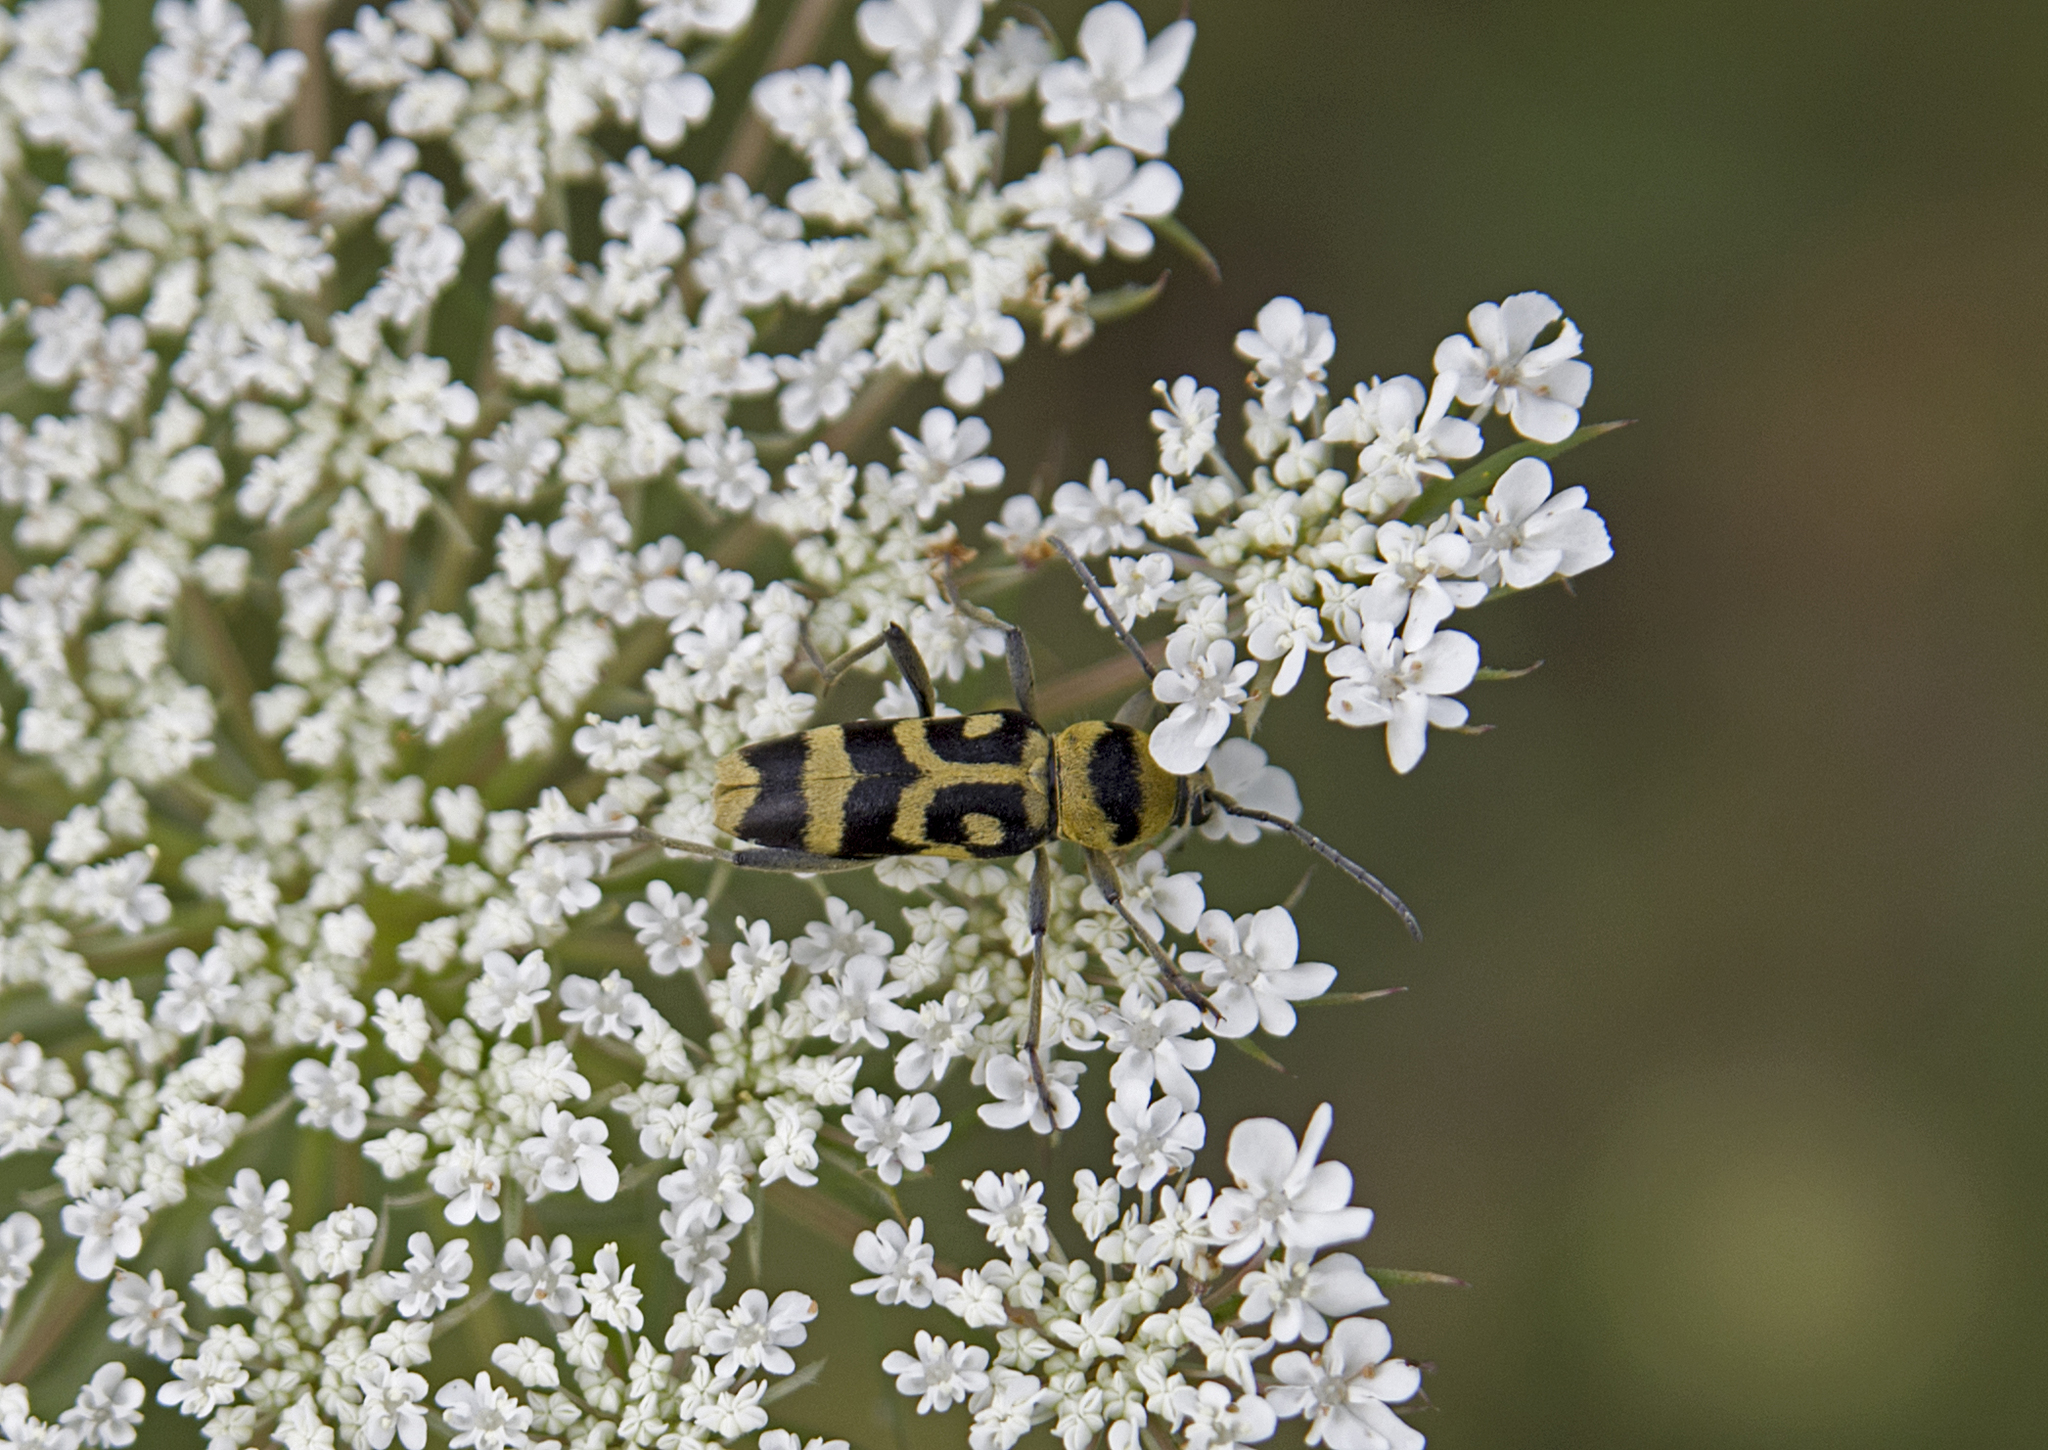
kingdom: Animalia
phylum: Arthropoda
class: Insecta
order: Coleoptera
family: Cerambycidae
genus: Chlorophorus
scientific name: Chlorophorus varius
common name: Grape wood borer
